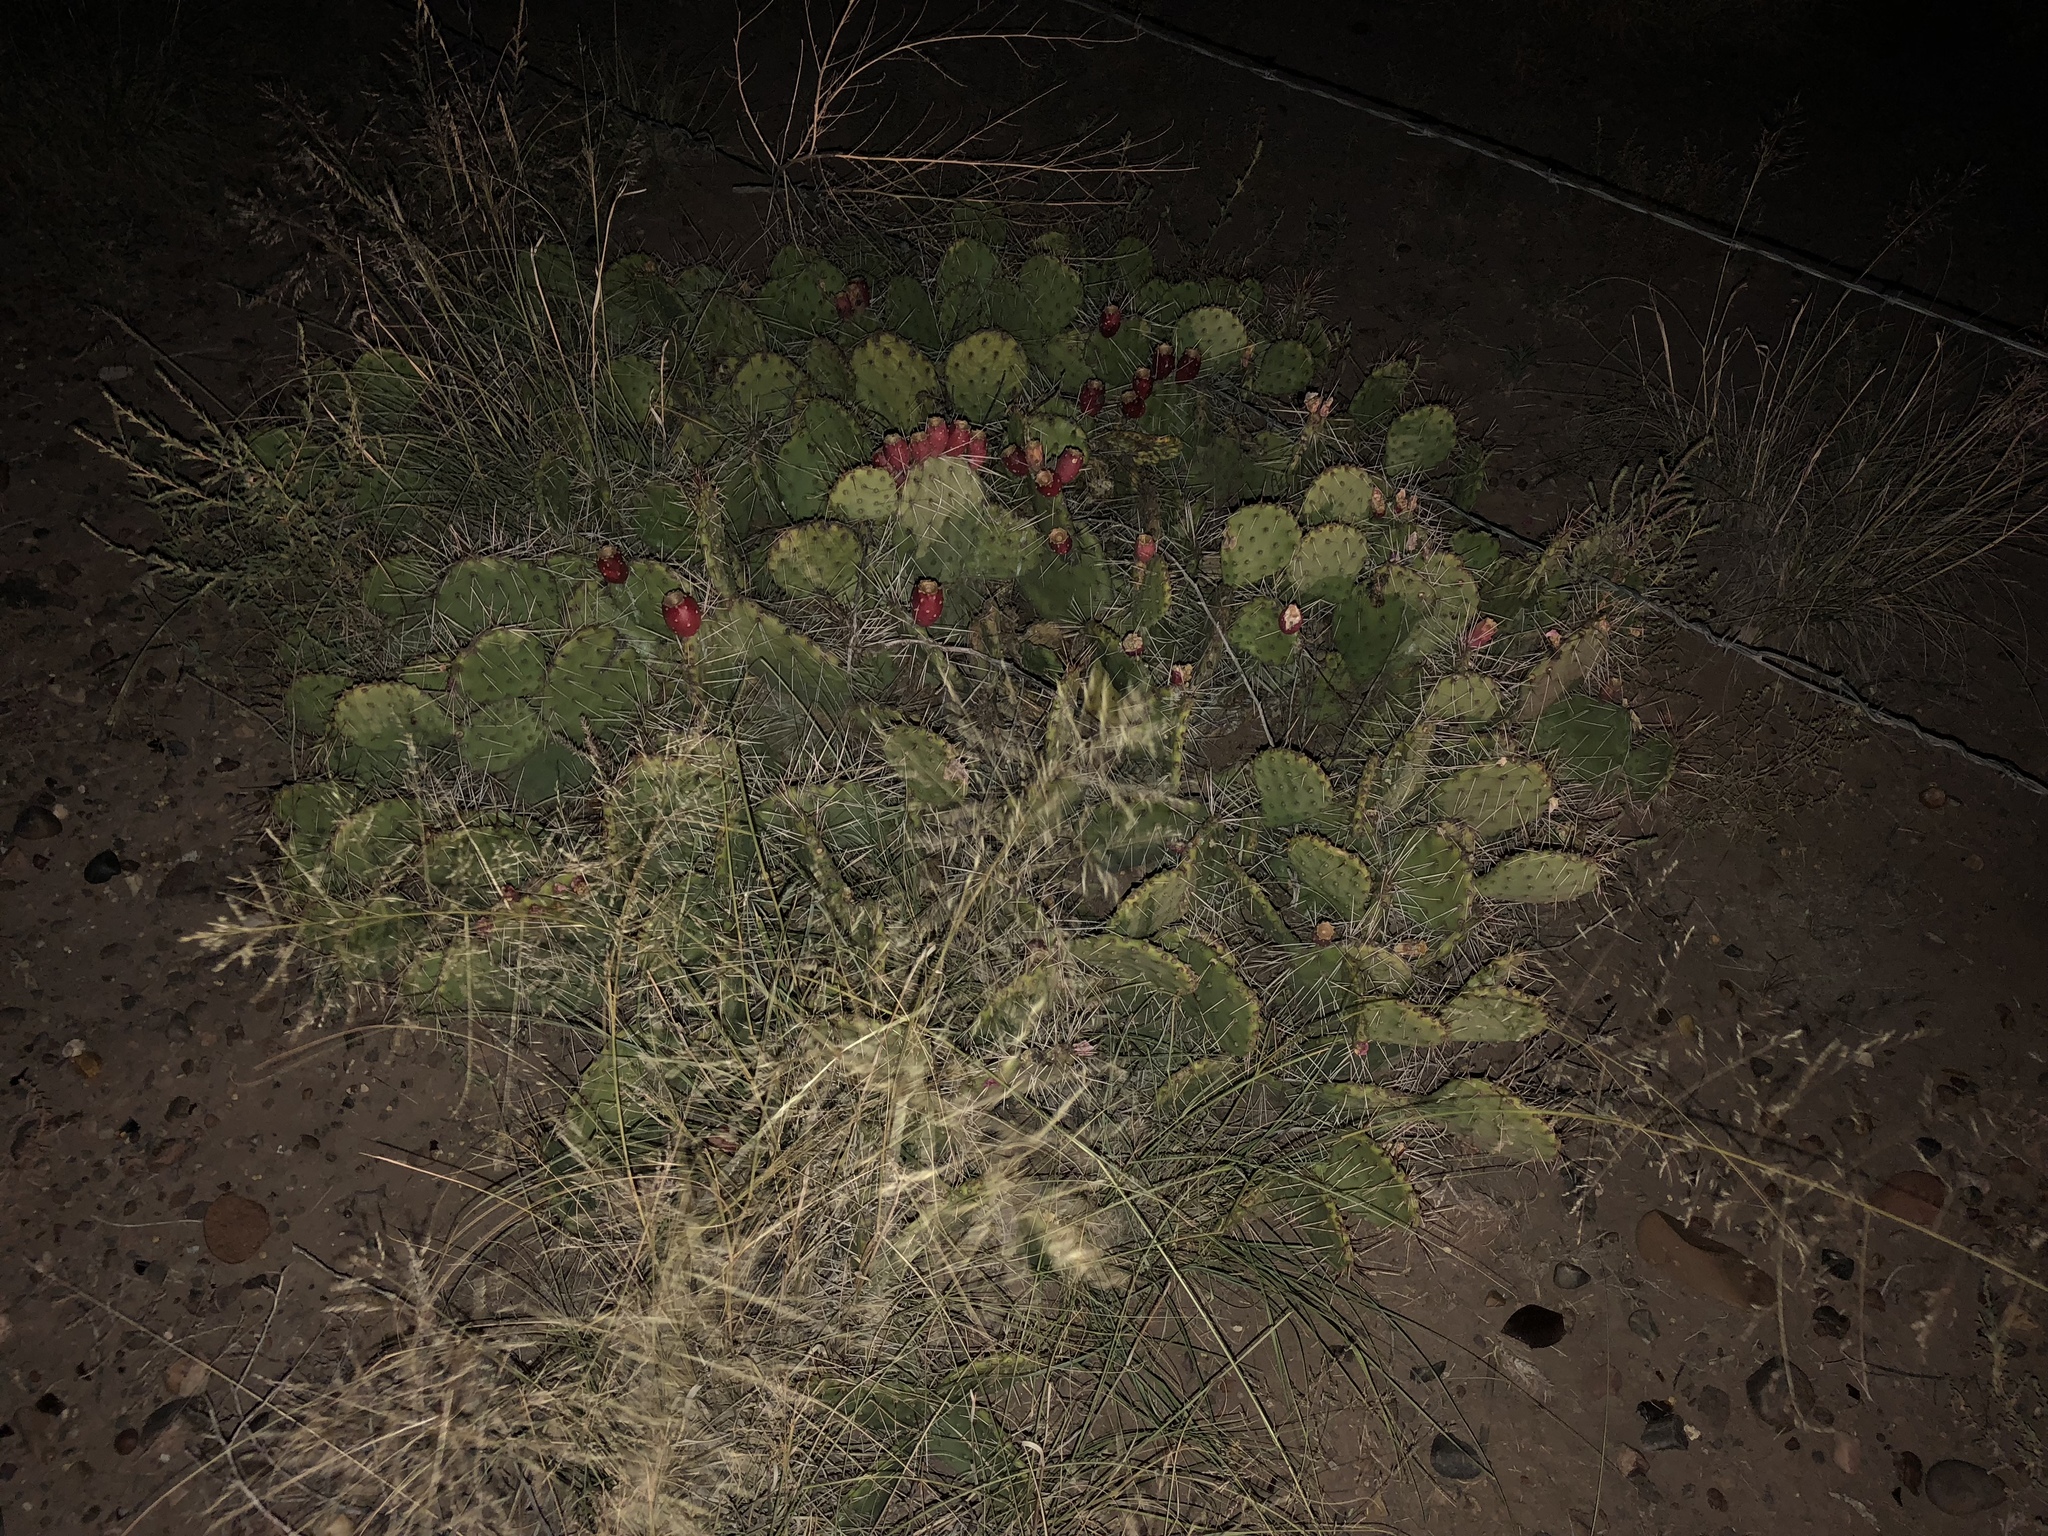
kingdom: Plantae
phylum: Tracheophyta
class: Magnoliopsida
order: Caryophyllales
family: Cactaceae
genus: Opuntia
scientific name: Opuntia phaeacantha
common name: New mexico prickly-pear
